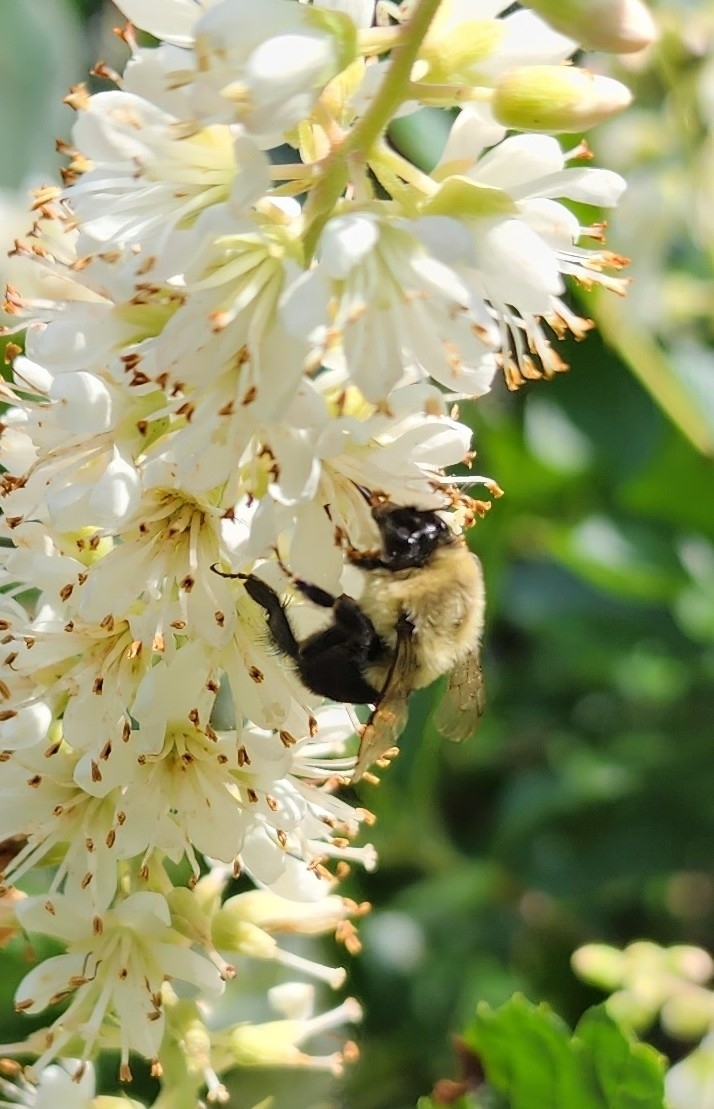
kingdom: Animalia
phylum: Arthropoda
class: Insecta
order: Hymenoptera
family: Apidae
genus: Bombus
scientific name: Bombus impatiens
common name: Common eastern bumble bee
